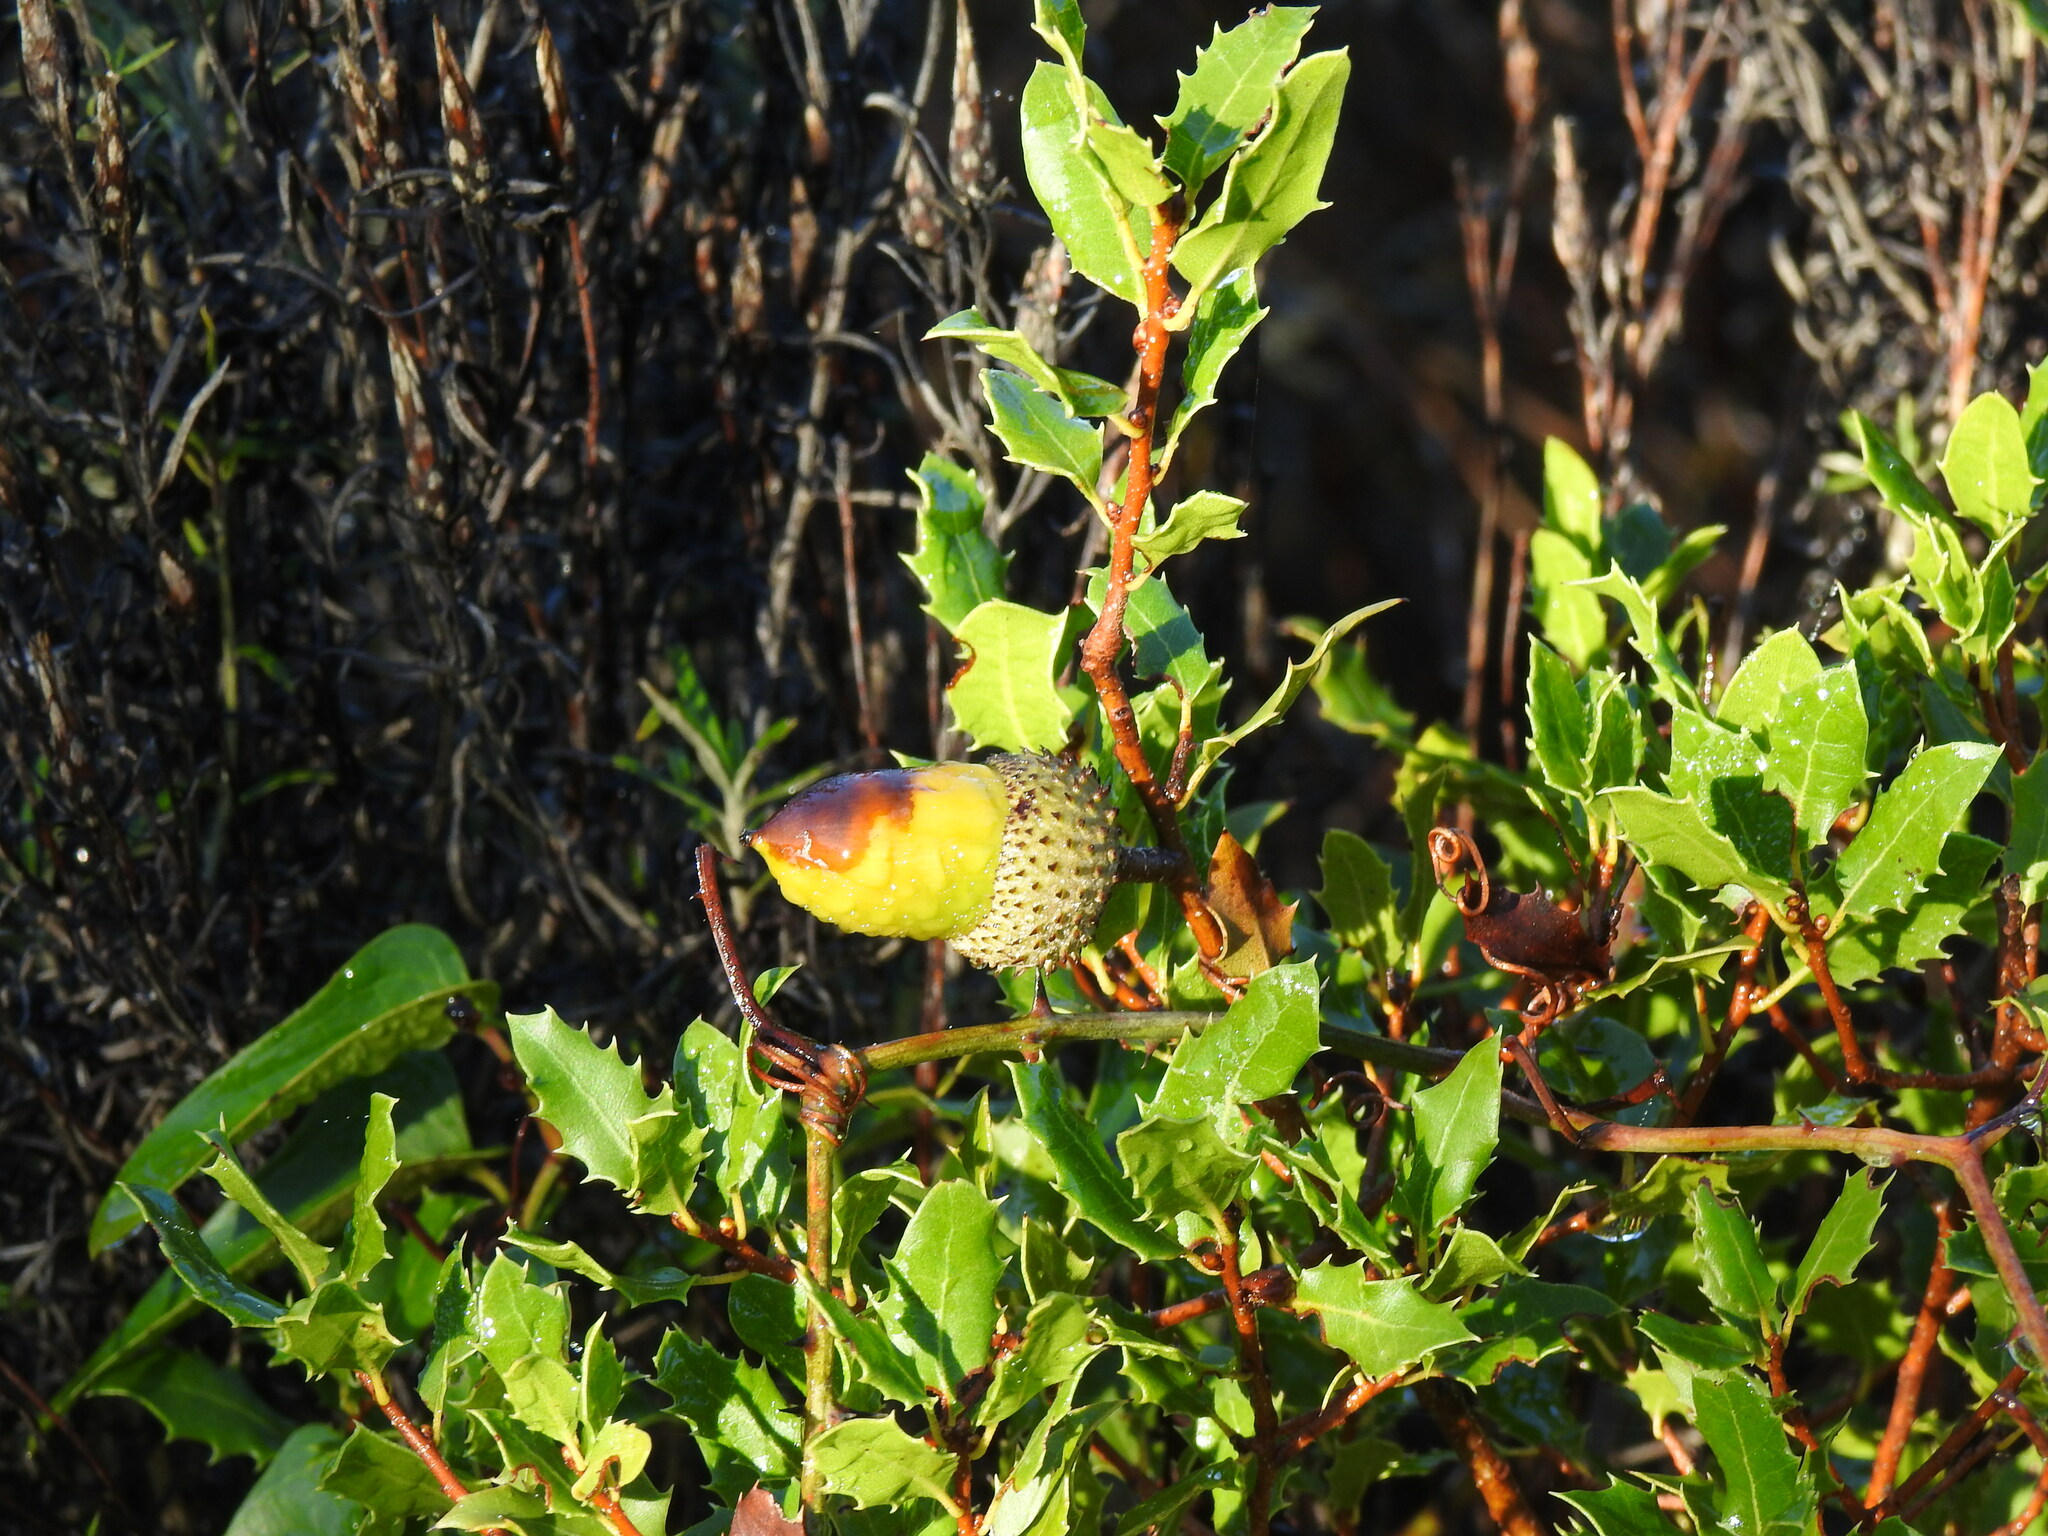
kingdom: Plantae
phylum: Tracheophyta
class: Magnoliopsida
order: Fagales
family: Fagaceae
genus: Quercus
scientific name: Quercus coccifera
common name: Kermes oak
